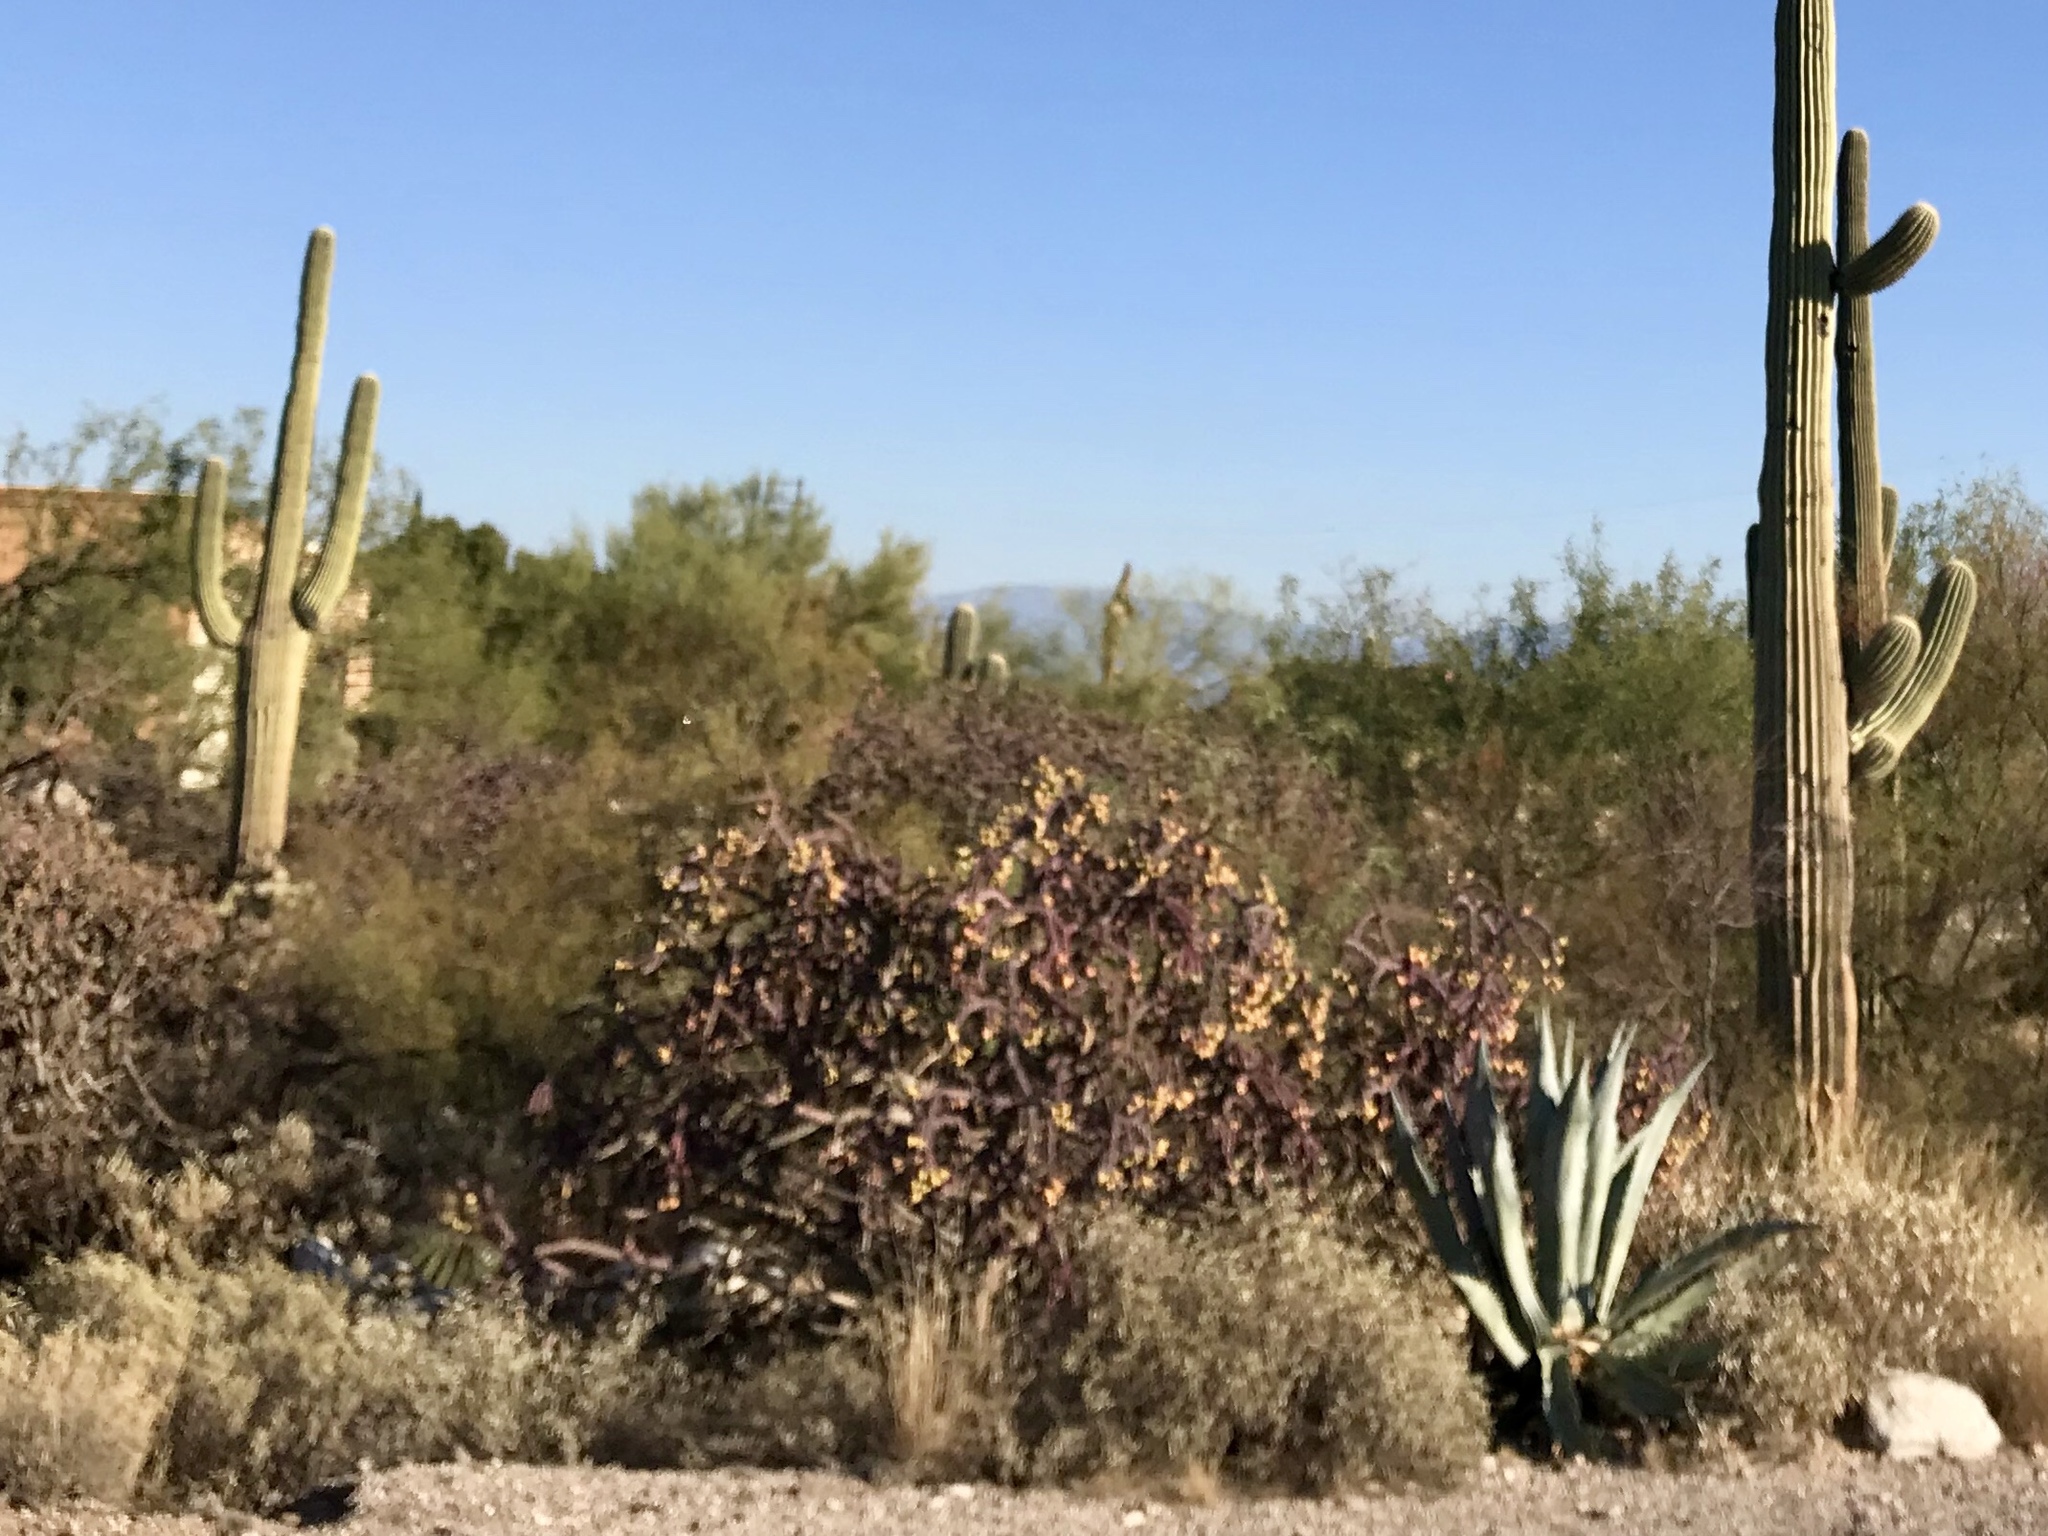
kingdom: Plantae
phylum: Tracheophyta
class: Magnoliopsida
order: Caryophyllales
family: Cactaceae
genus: Cylindropuntia
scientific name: Cylindropuntia thurberi
